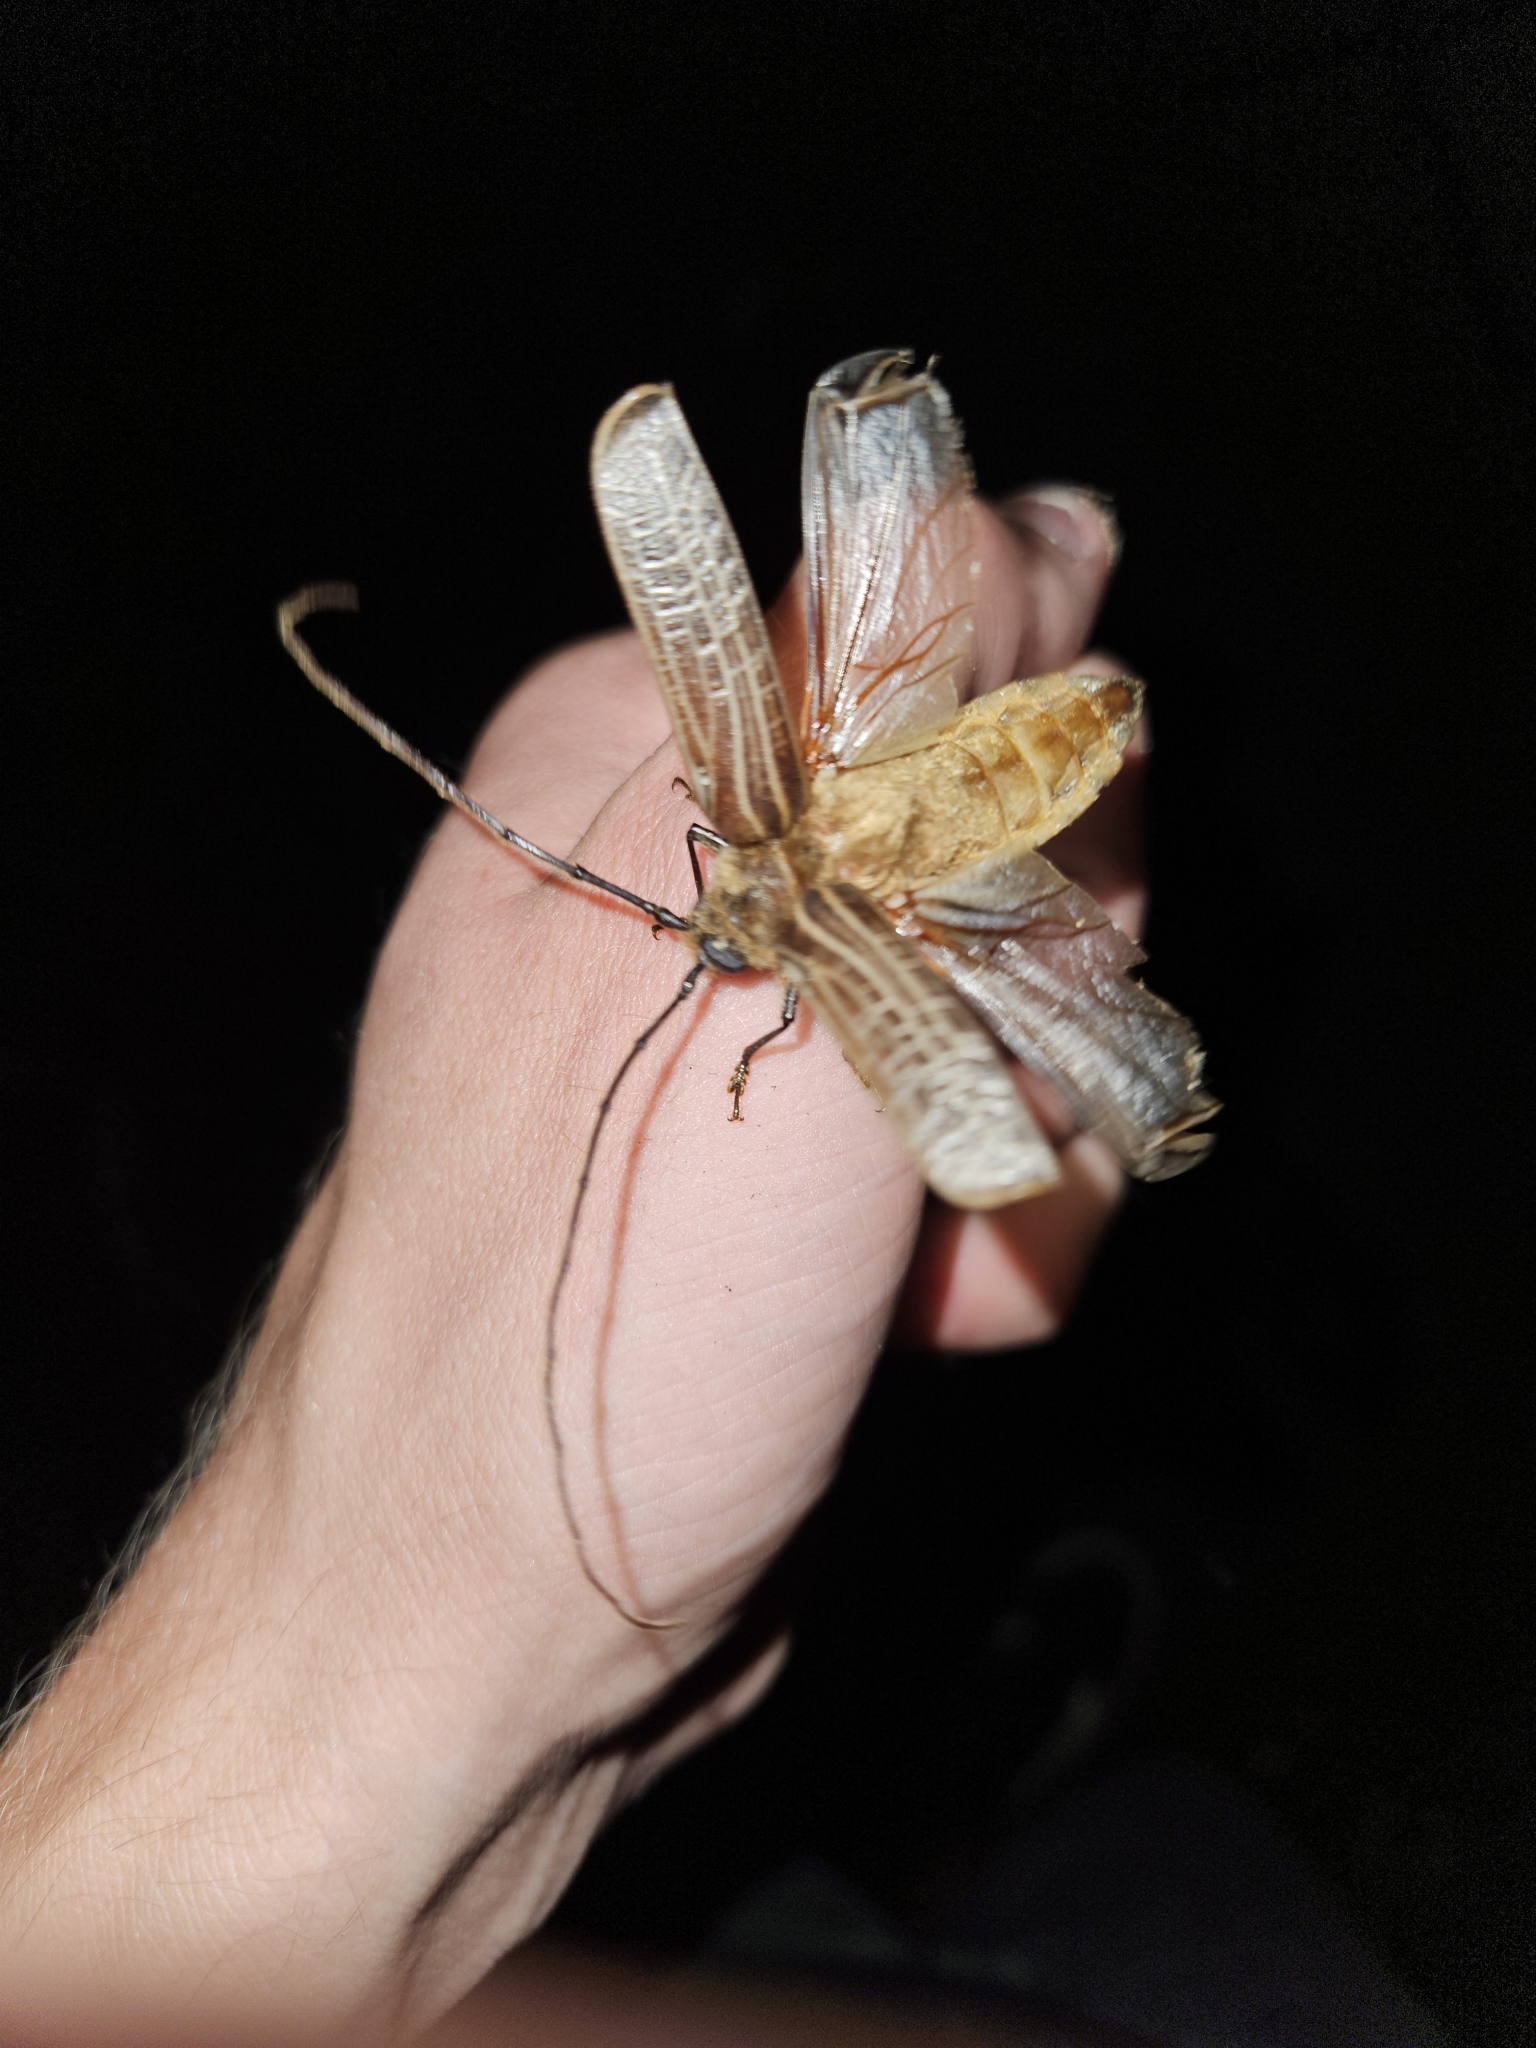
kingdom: Animalia
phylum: Arthropoda
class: Insecta
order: Coleoptera
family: Cerambycidae
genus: Prionoplus
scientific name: Prionoplus reticularis
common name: Huhu beetle
